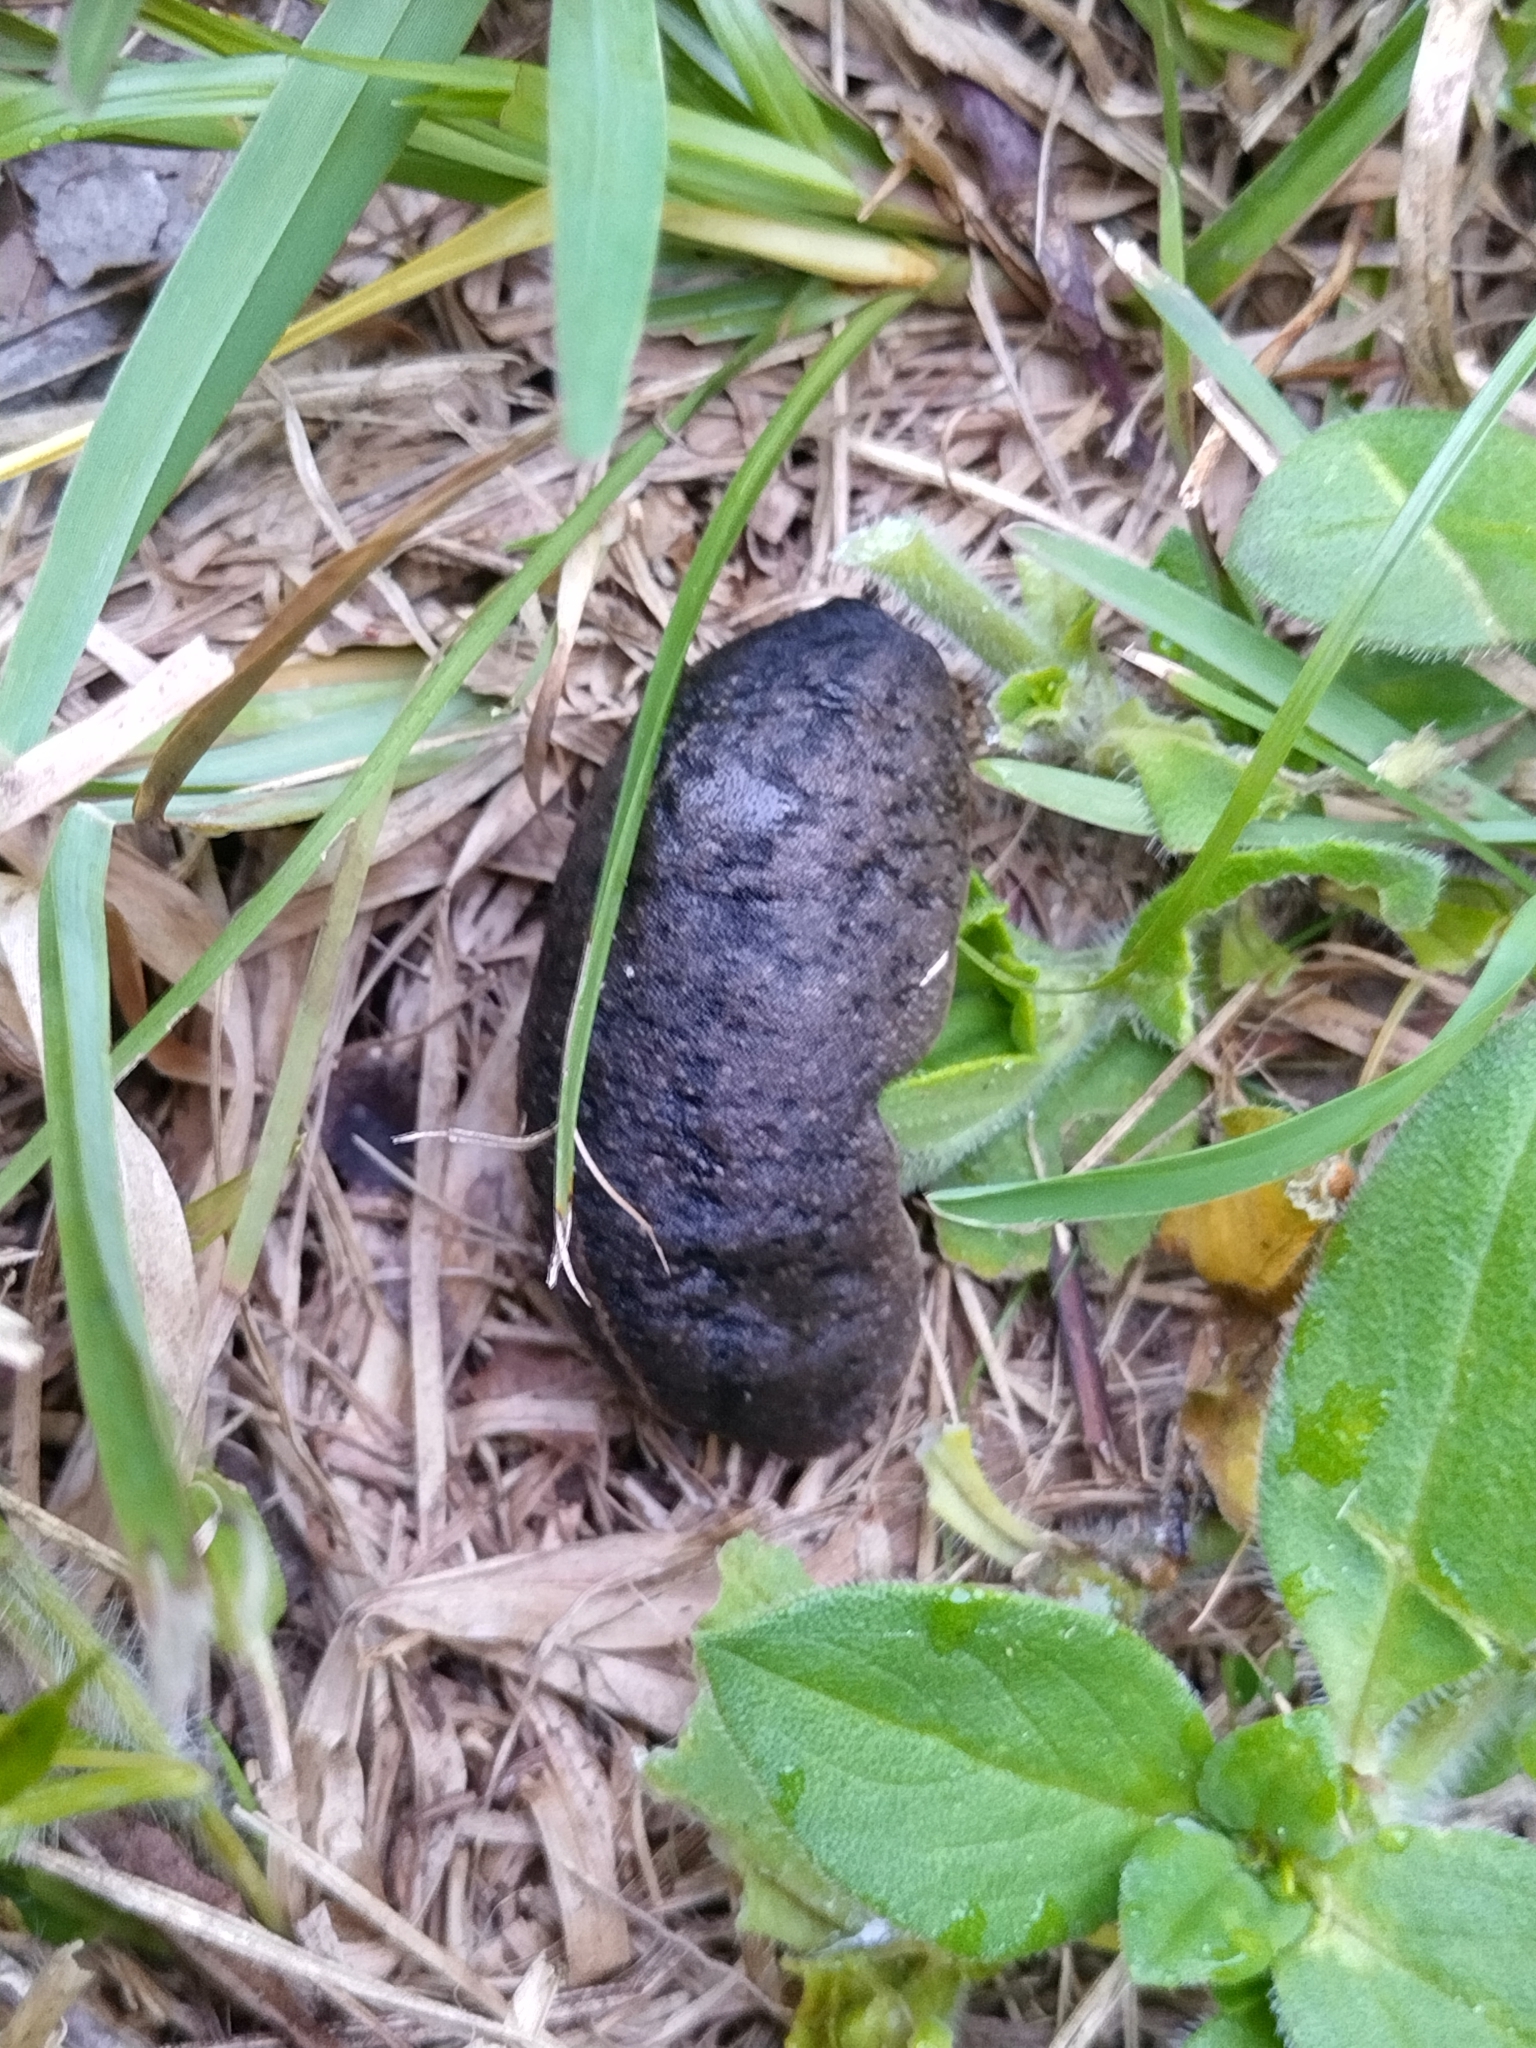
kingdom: Animalia
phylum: Mollusca
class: Gastropoda
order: Systellommatophora
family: Veronicellidae
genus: Leidyula
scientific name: Leidyula floridana
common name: Florida leatherleaf
